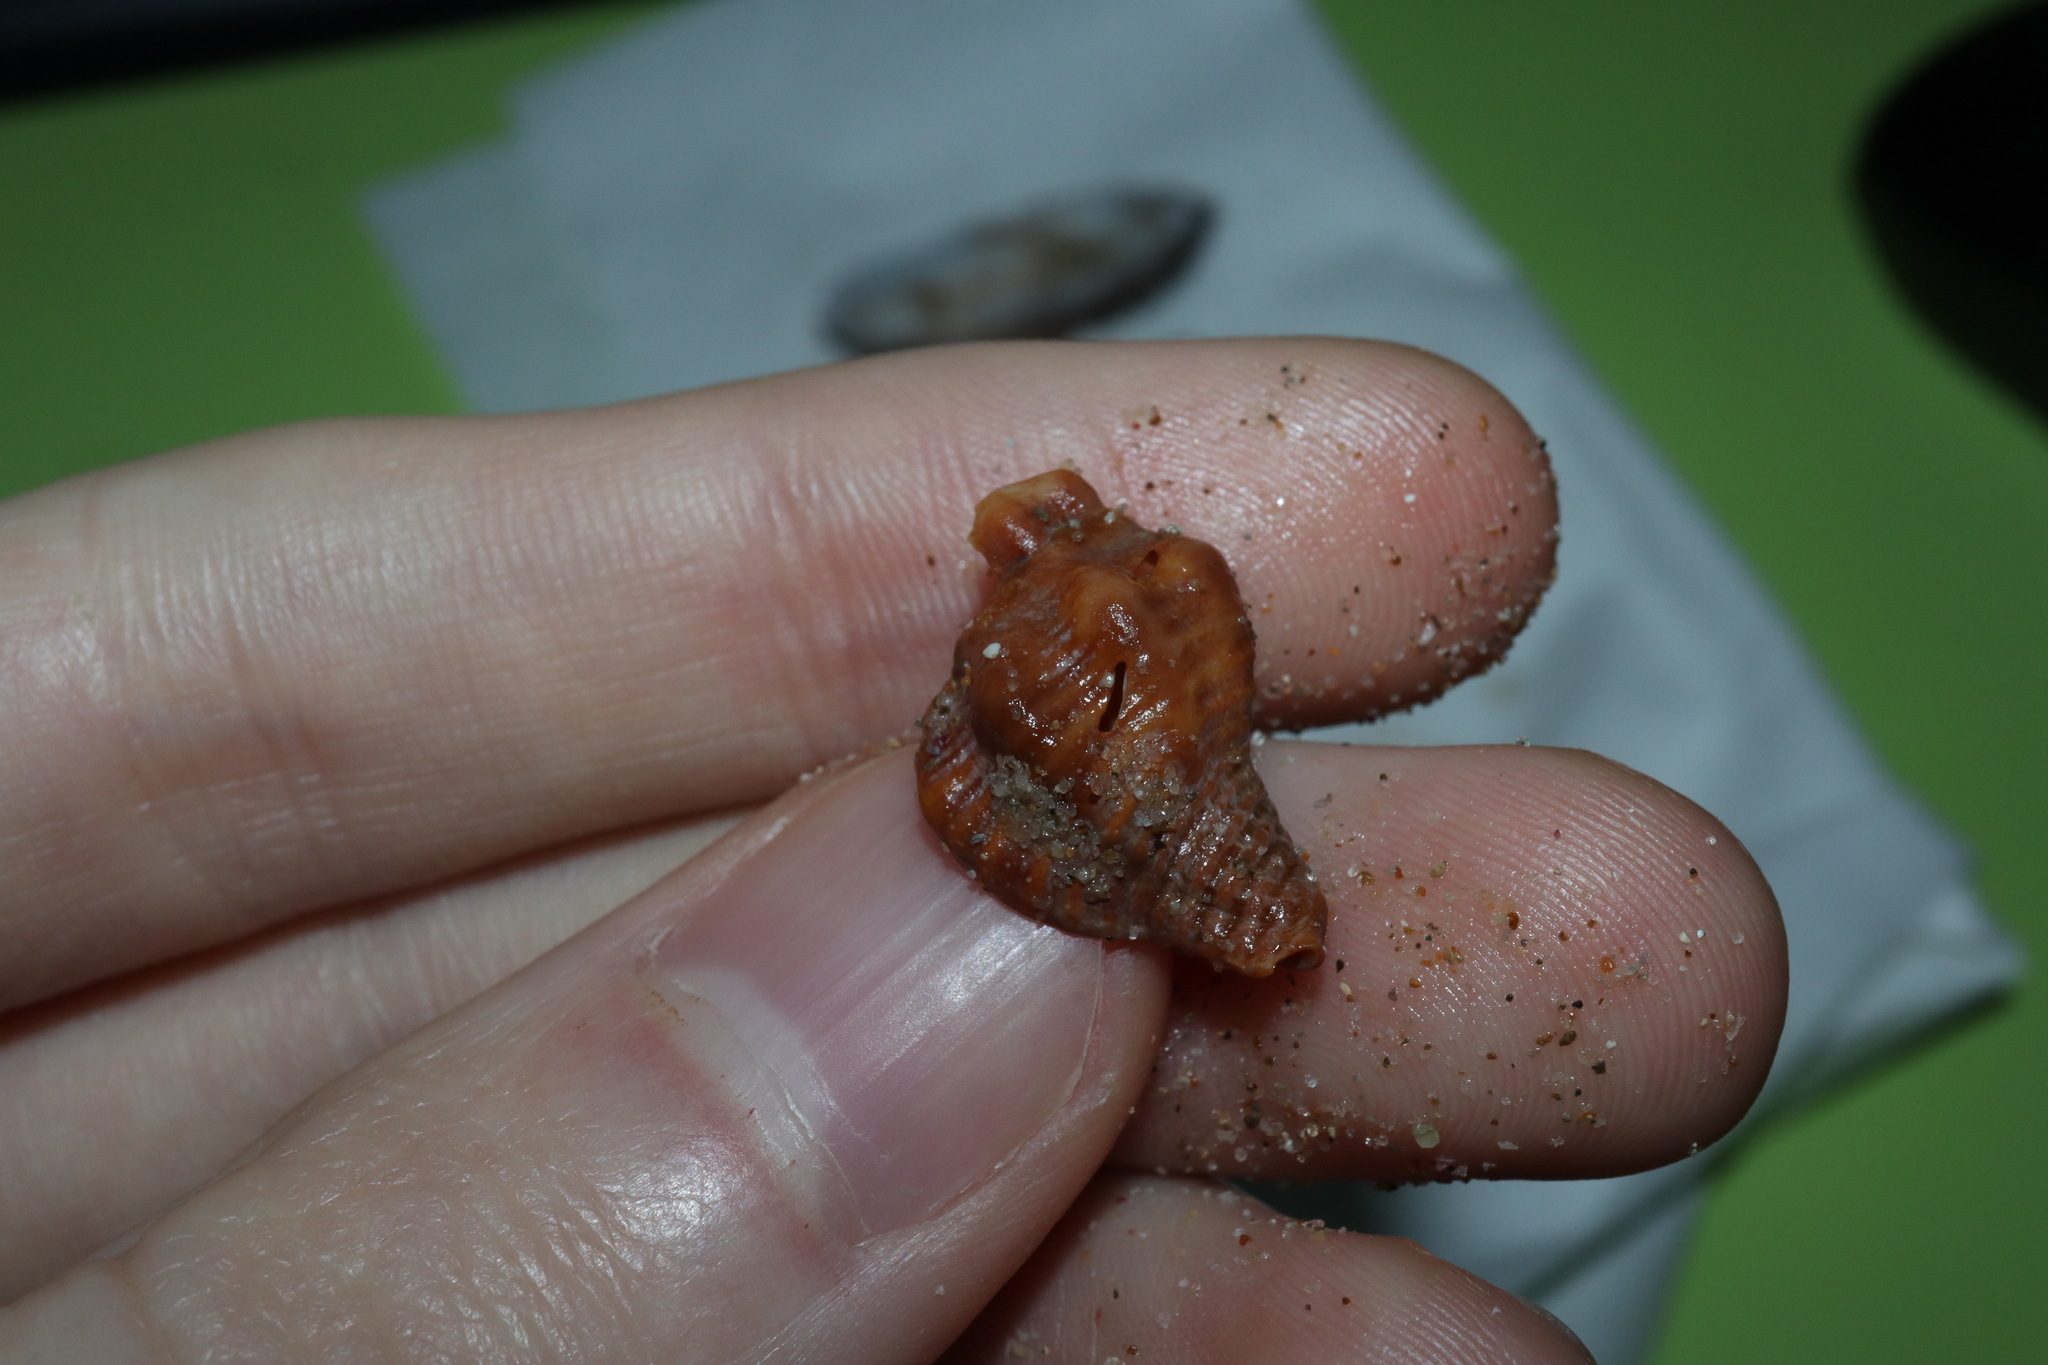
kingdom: Animalia
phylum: Mollusca
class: Gastropoda
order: Neogastropoda
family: Muricidae
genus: Bedeva
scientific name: Bedeva paivae
